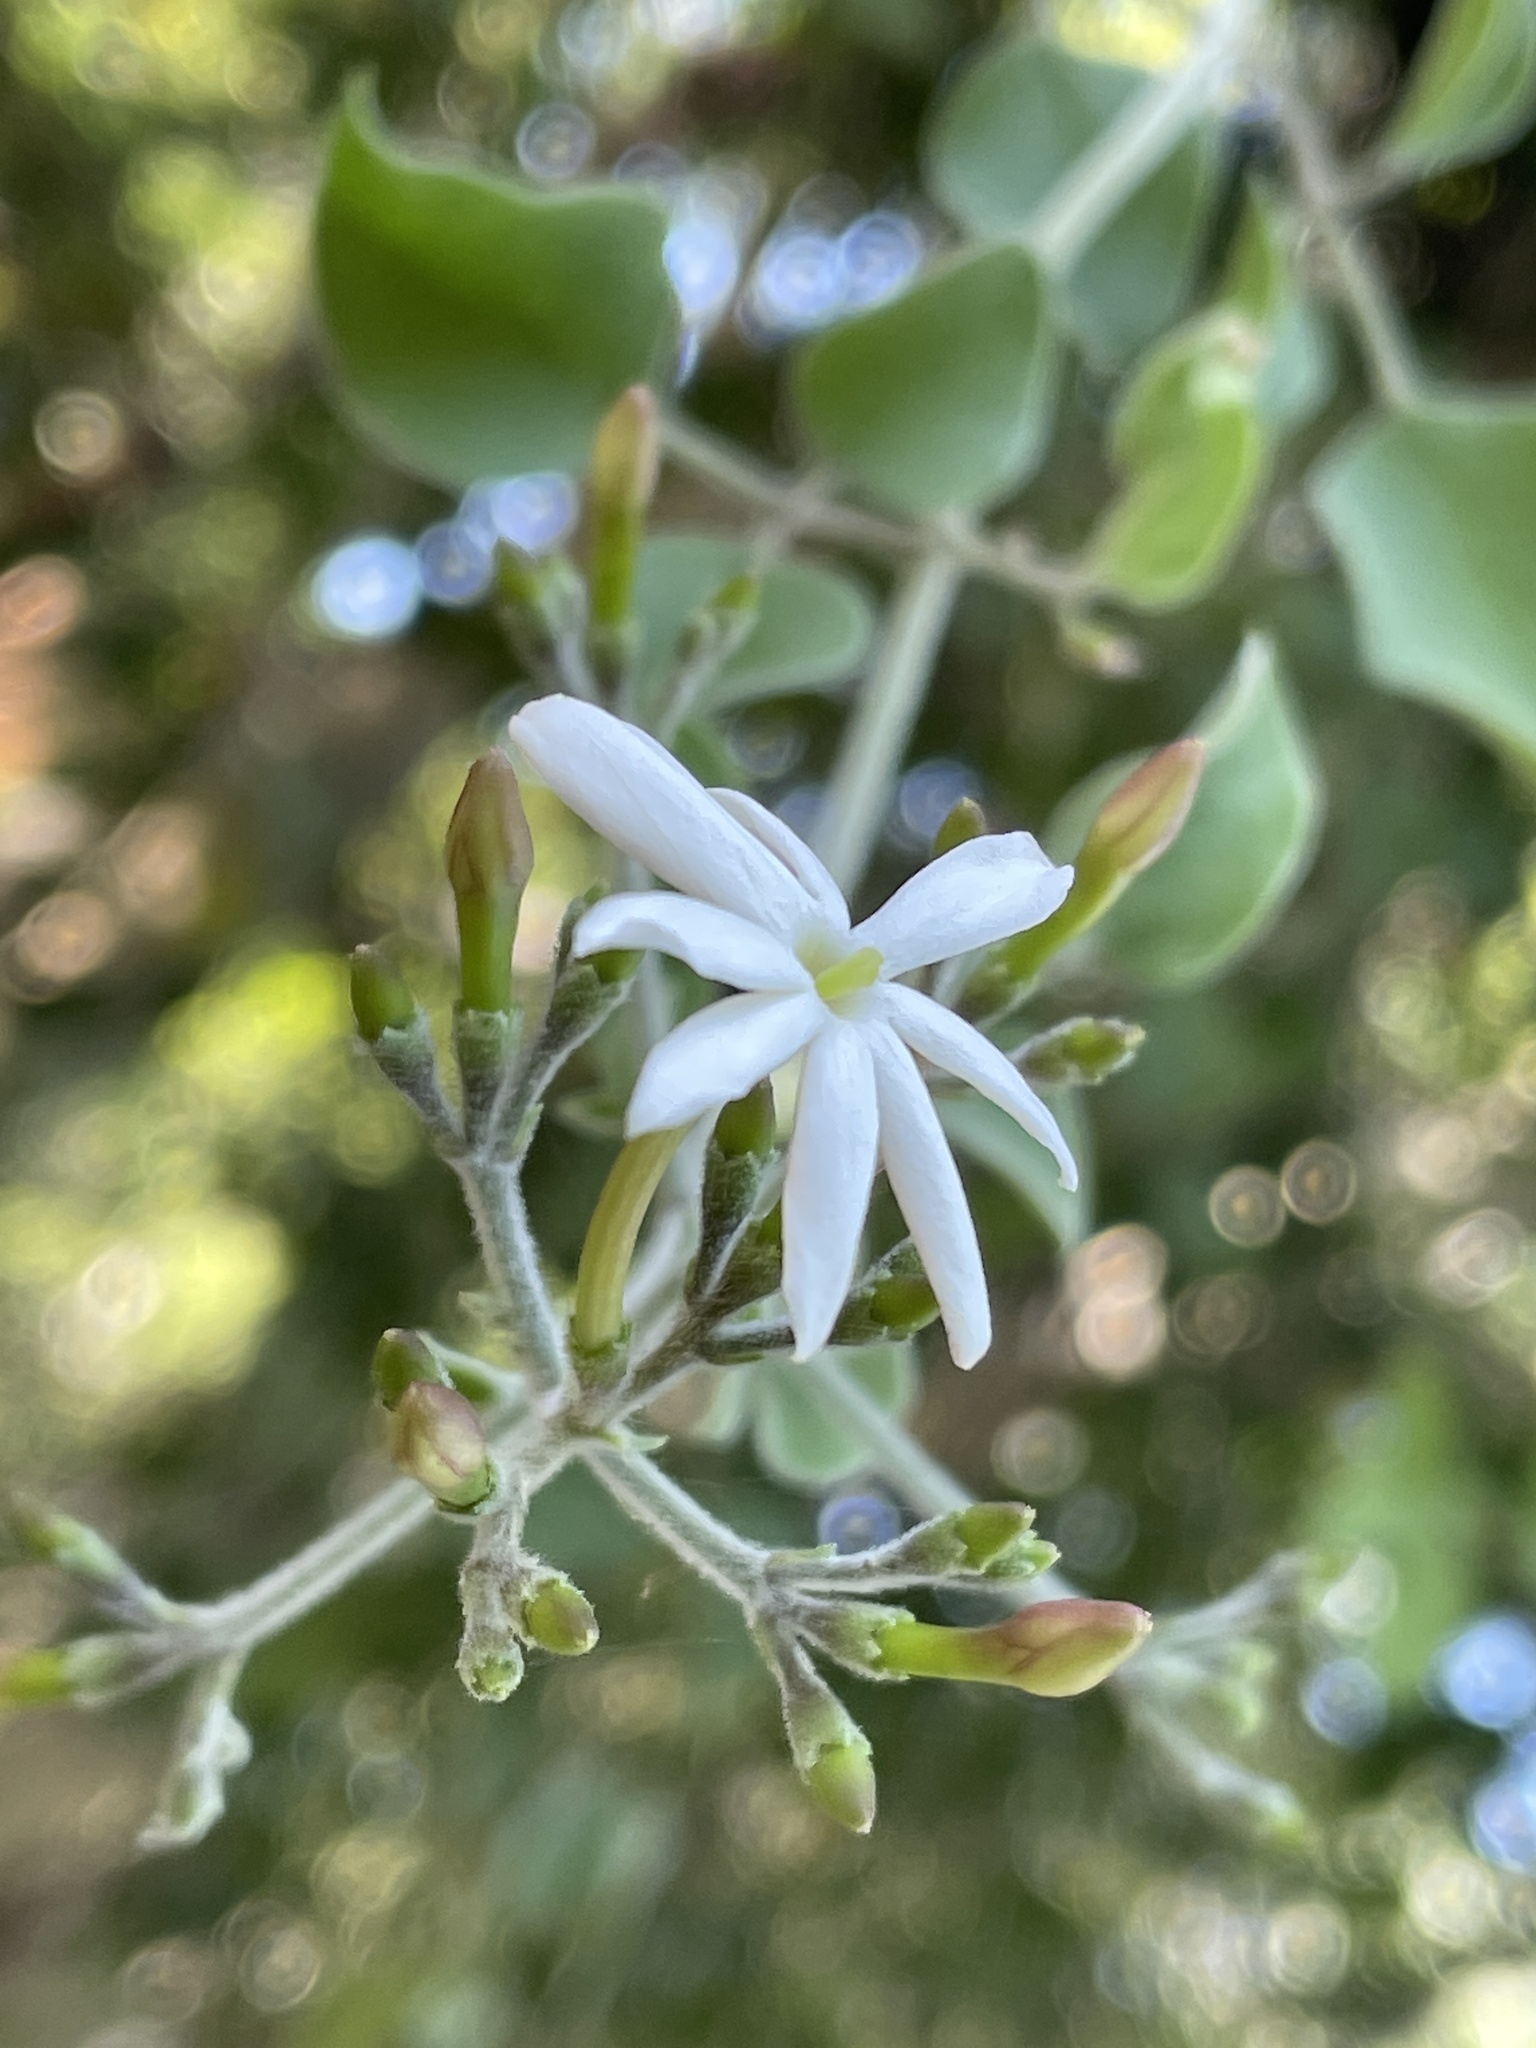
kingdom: Plantae
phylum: Tracheophyta
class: Magnoliopsida
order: Lamiales
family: Oleaceae
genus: Jasminum
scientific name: Jasminum fluminense
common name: Brazilian jasmine
